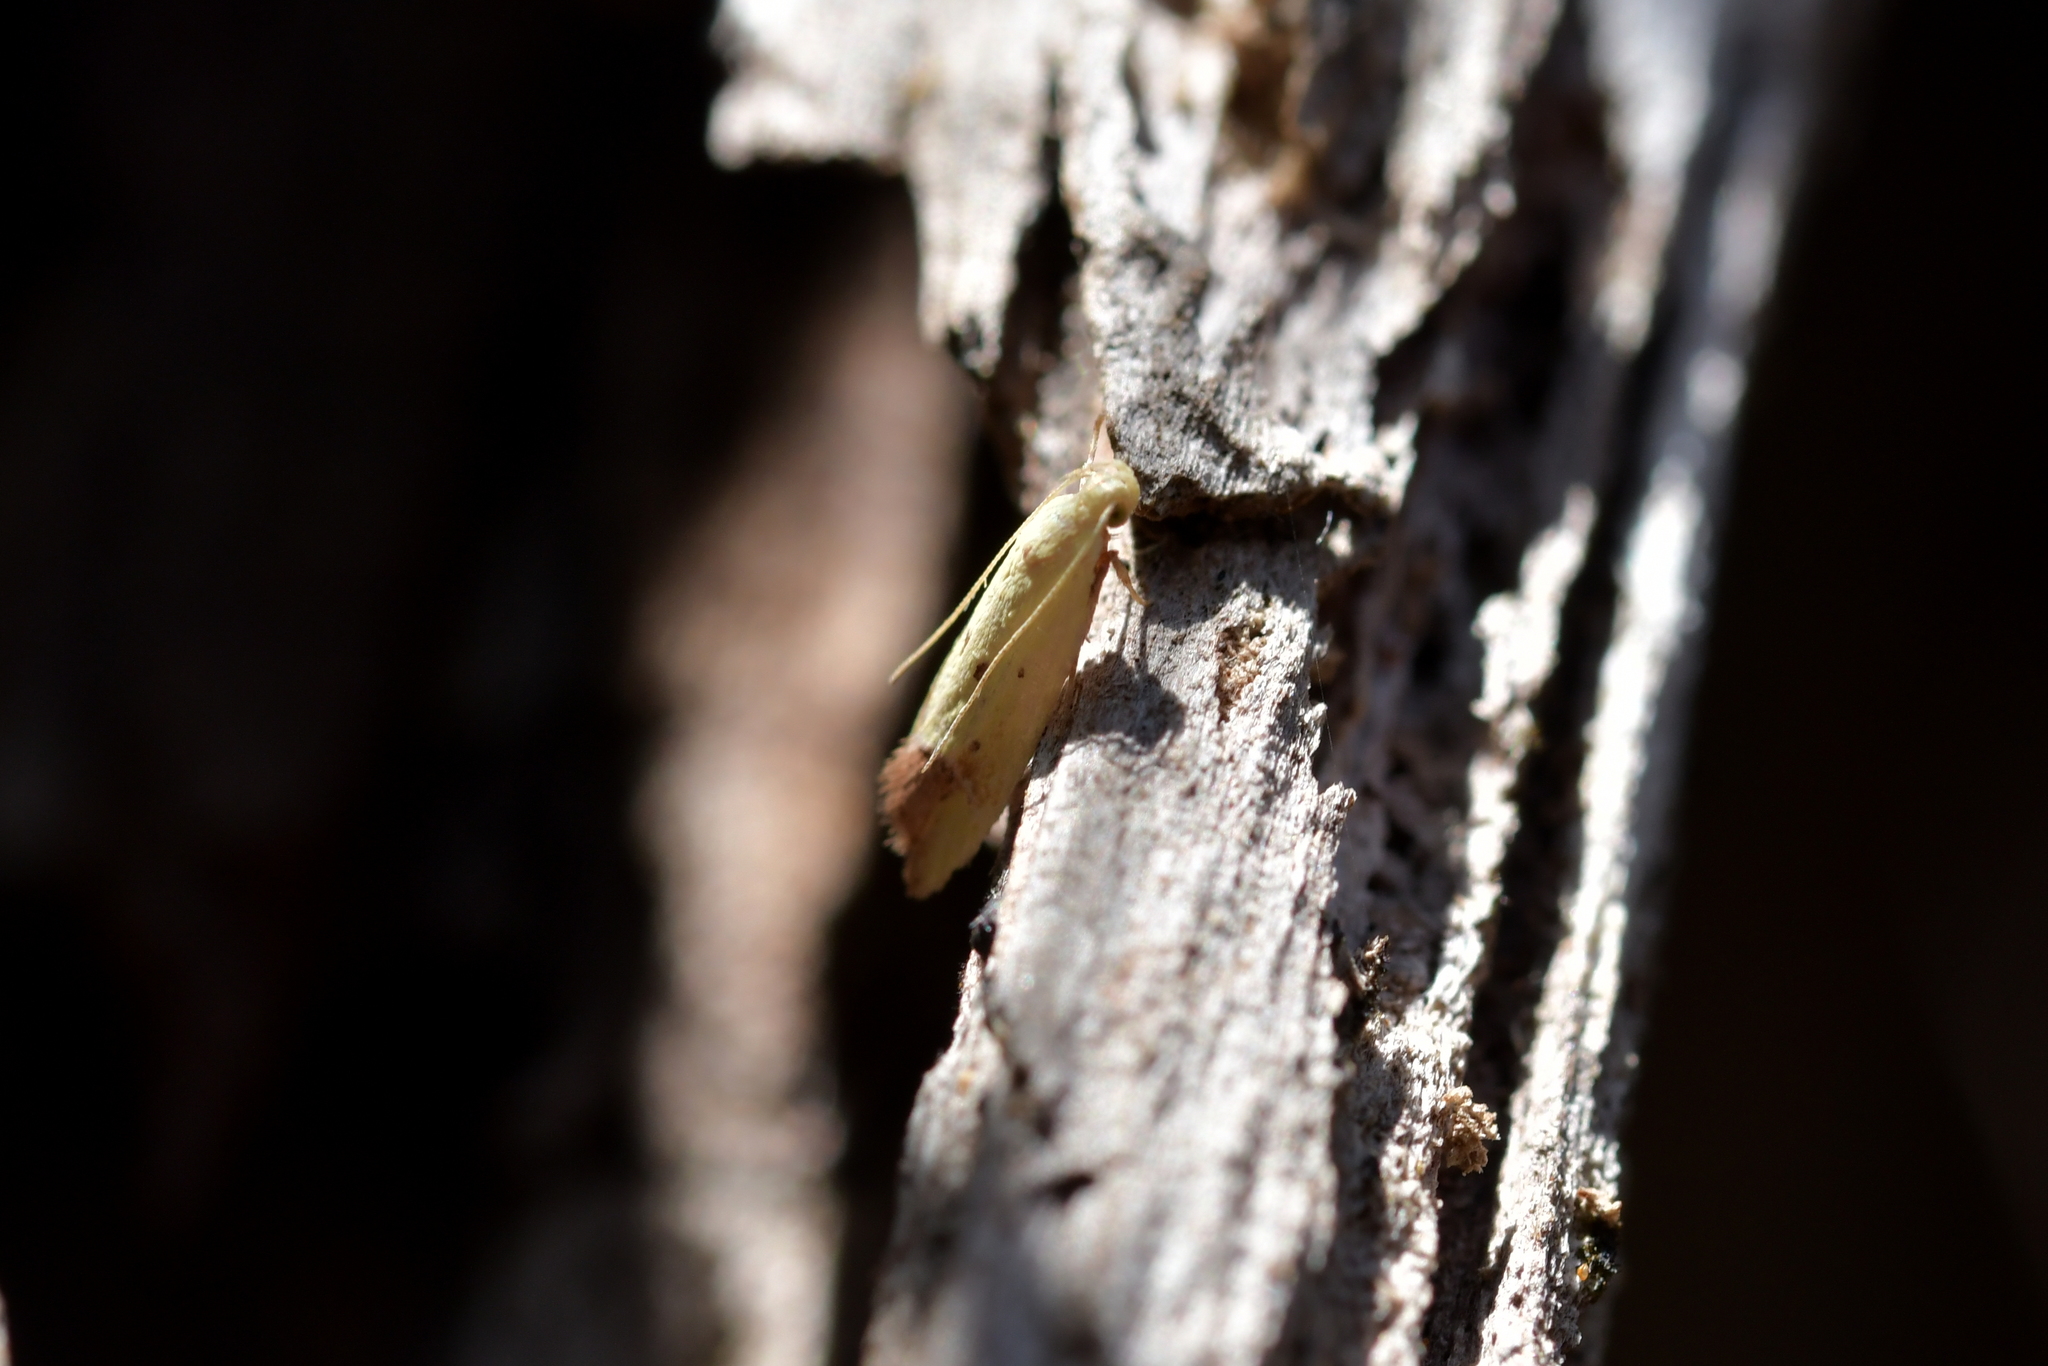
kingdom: Animalia
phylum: Arthropoda
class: Insecta
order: Lepidoptera
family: Oecophoridae
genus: Gymnobathra
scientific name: Gymnobathra flavidella
